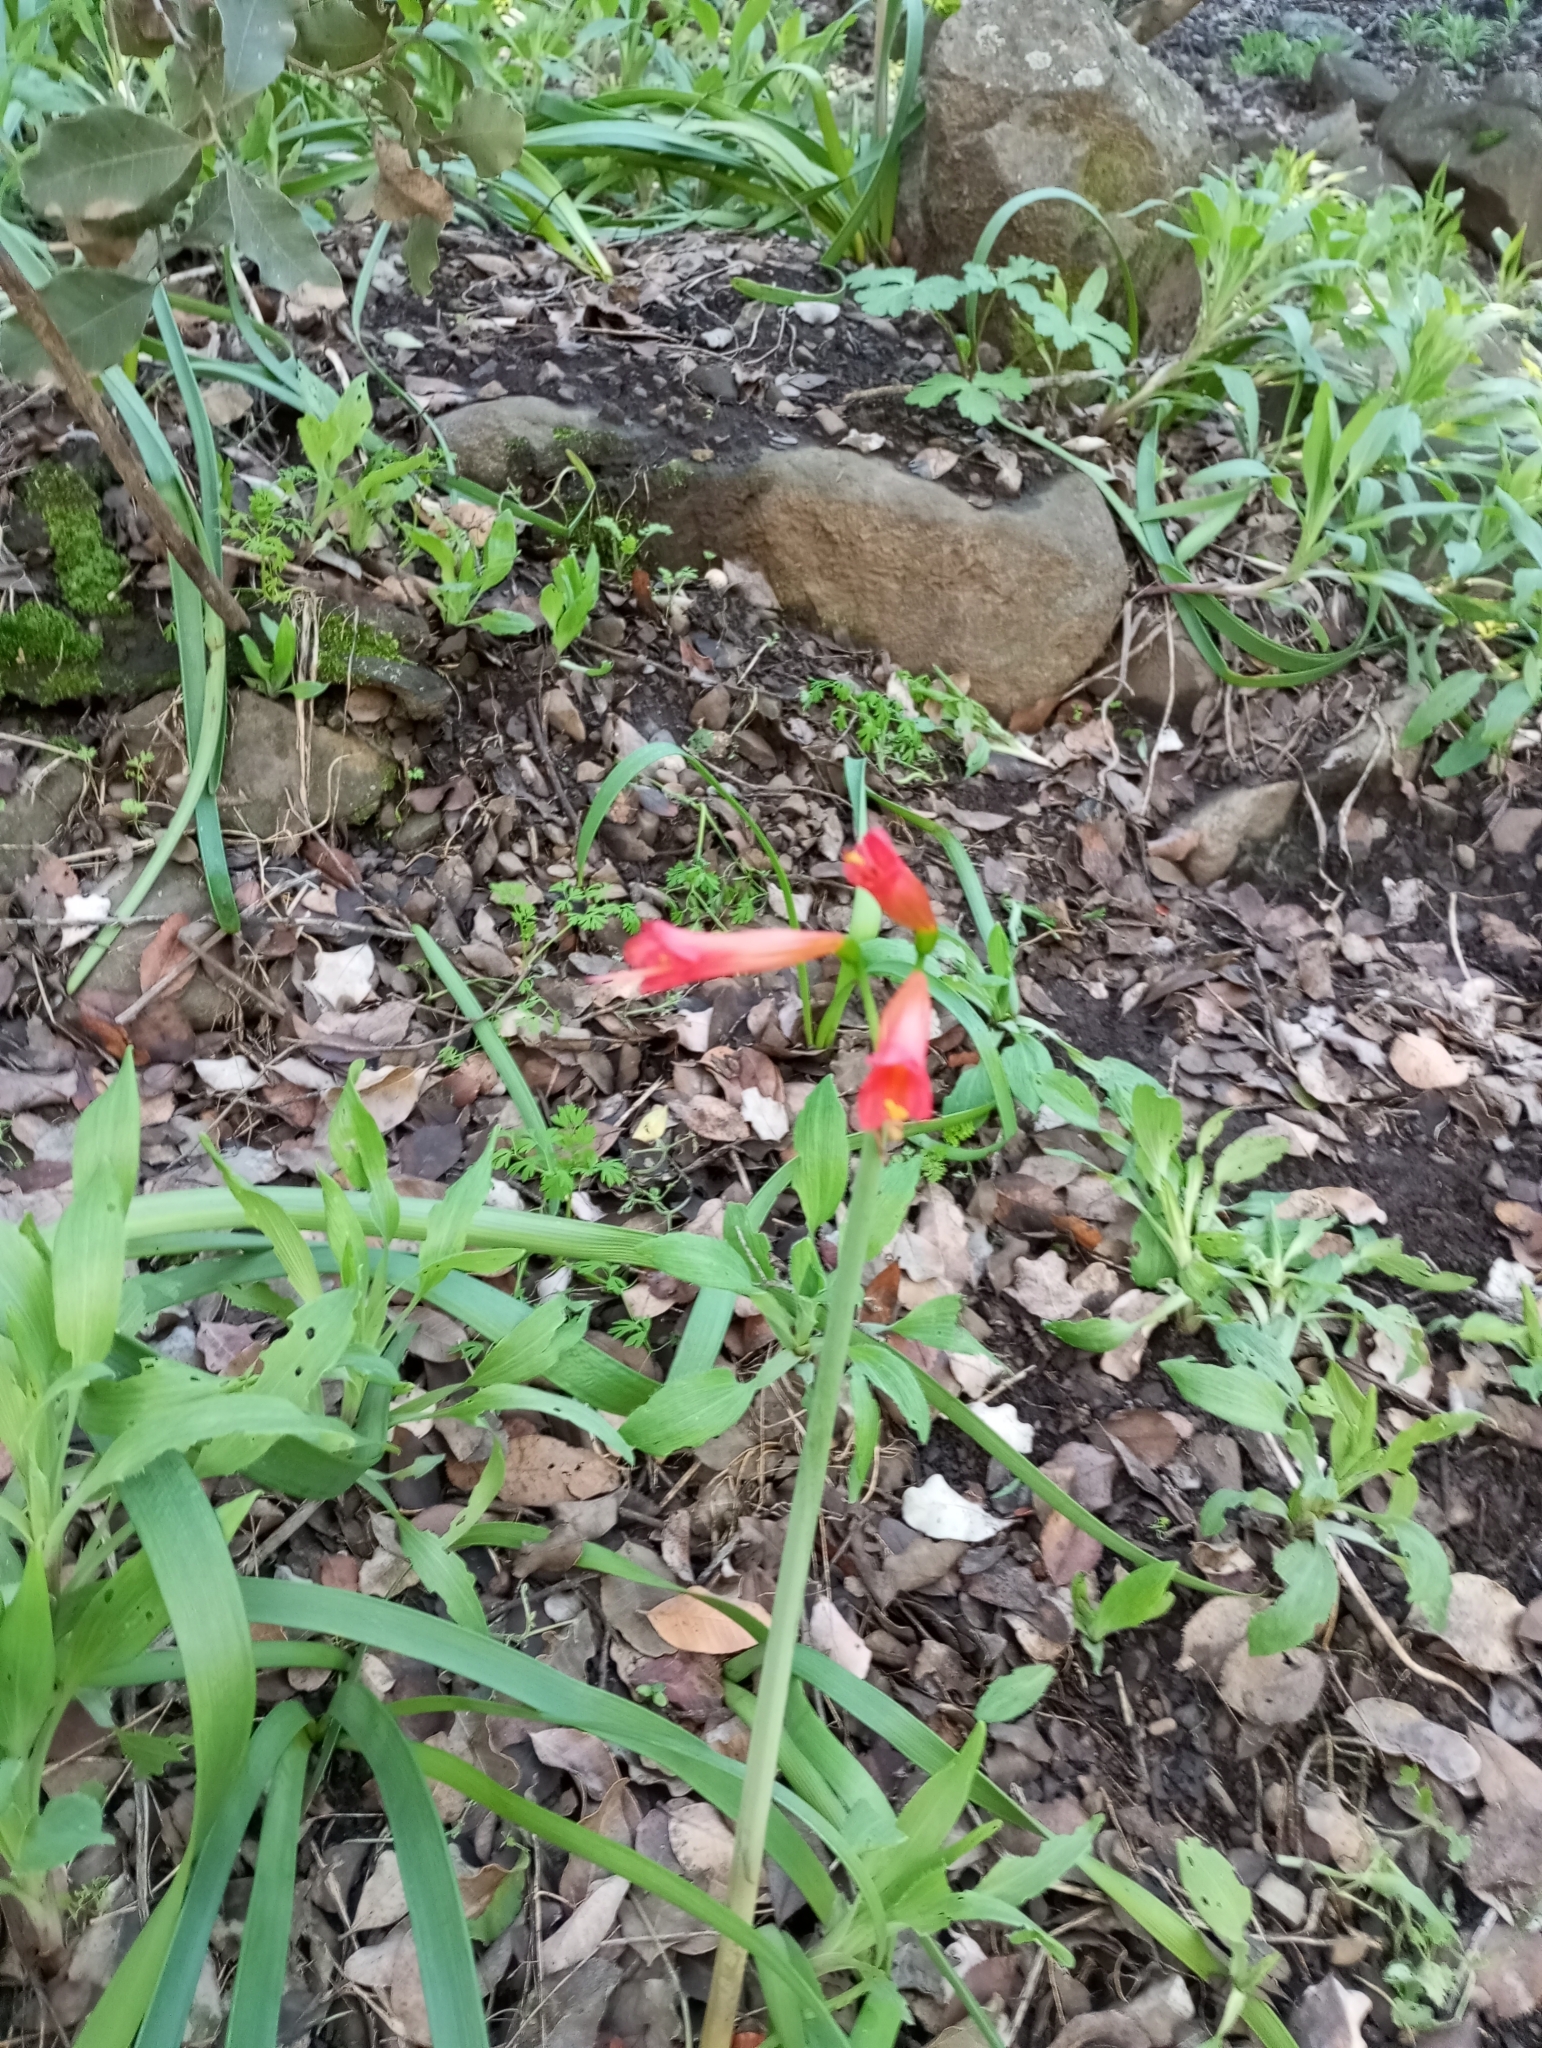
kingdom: Plantae
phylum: Tracheophyta
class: Liliopsida
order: Asparagales
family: Amaryllidaceae
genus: Phycella
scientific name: Phycella cyrtanthoides
